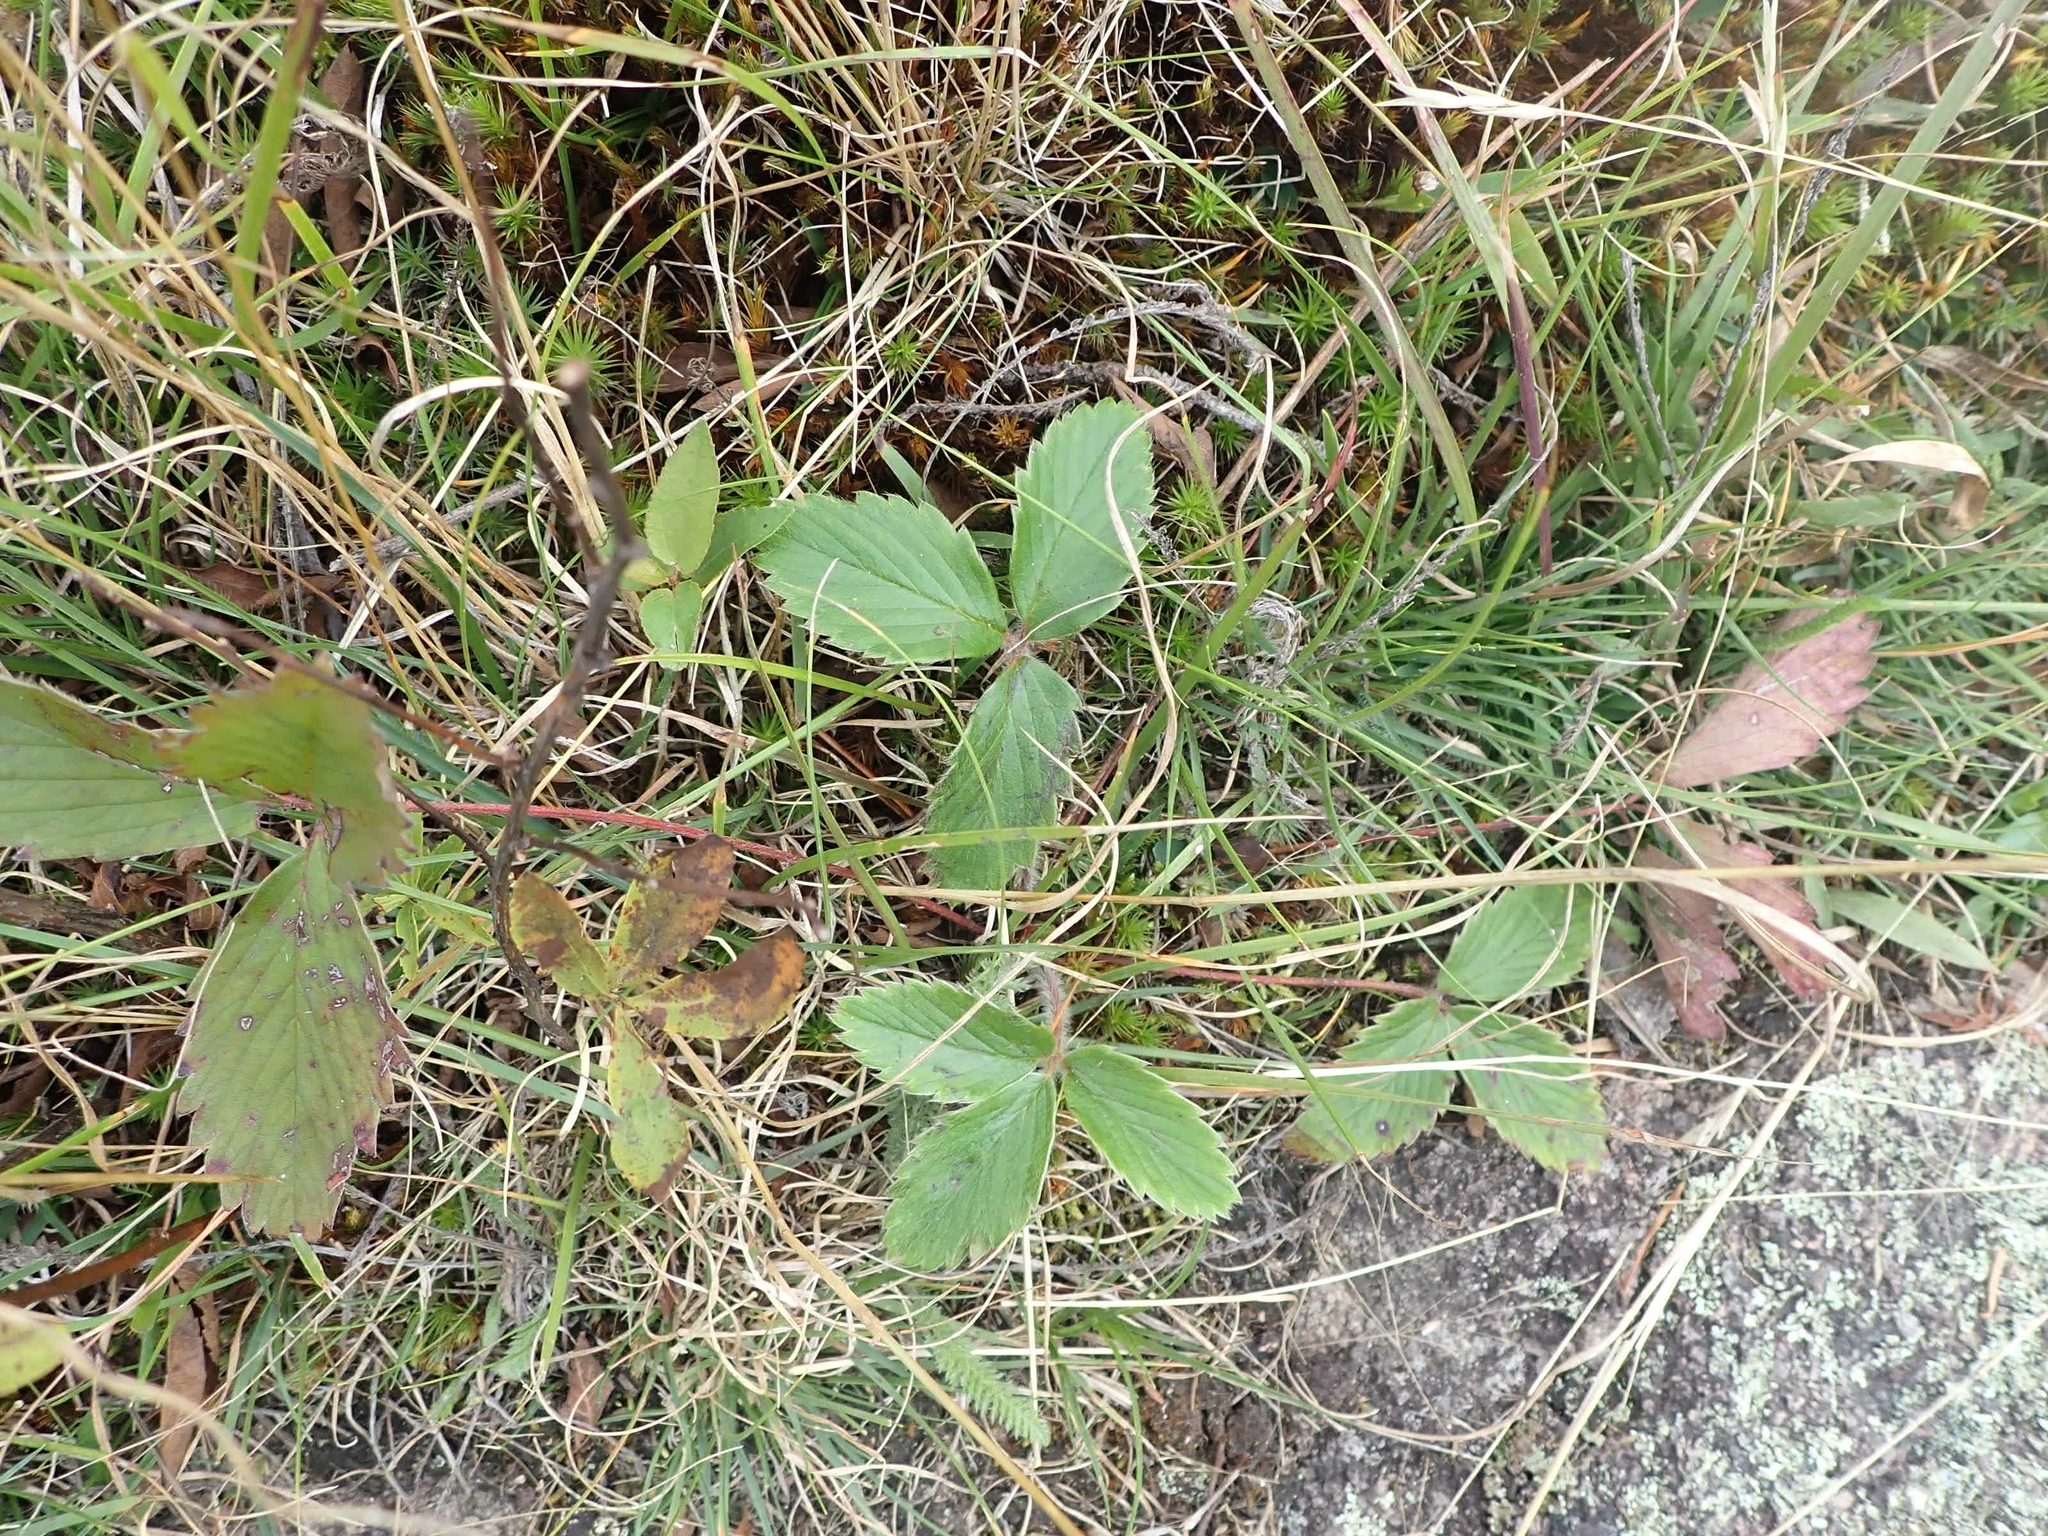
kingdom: Plantae
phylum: Tracheophyta
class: Magnoliopsida
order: Rosales
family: Rosaceae
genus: Fragaria
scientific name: Fragaria virginiana
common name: Thickleaved wild strawberry
